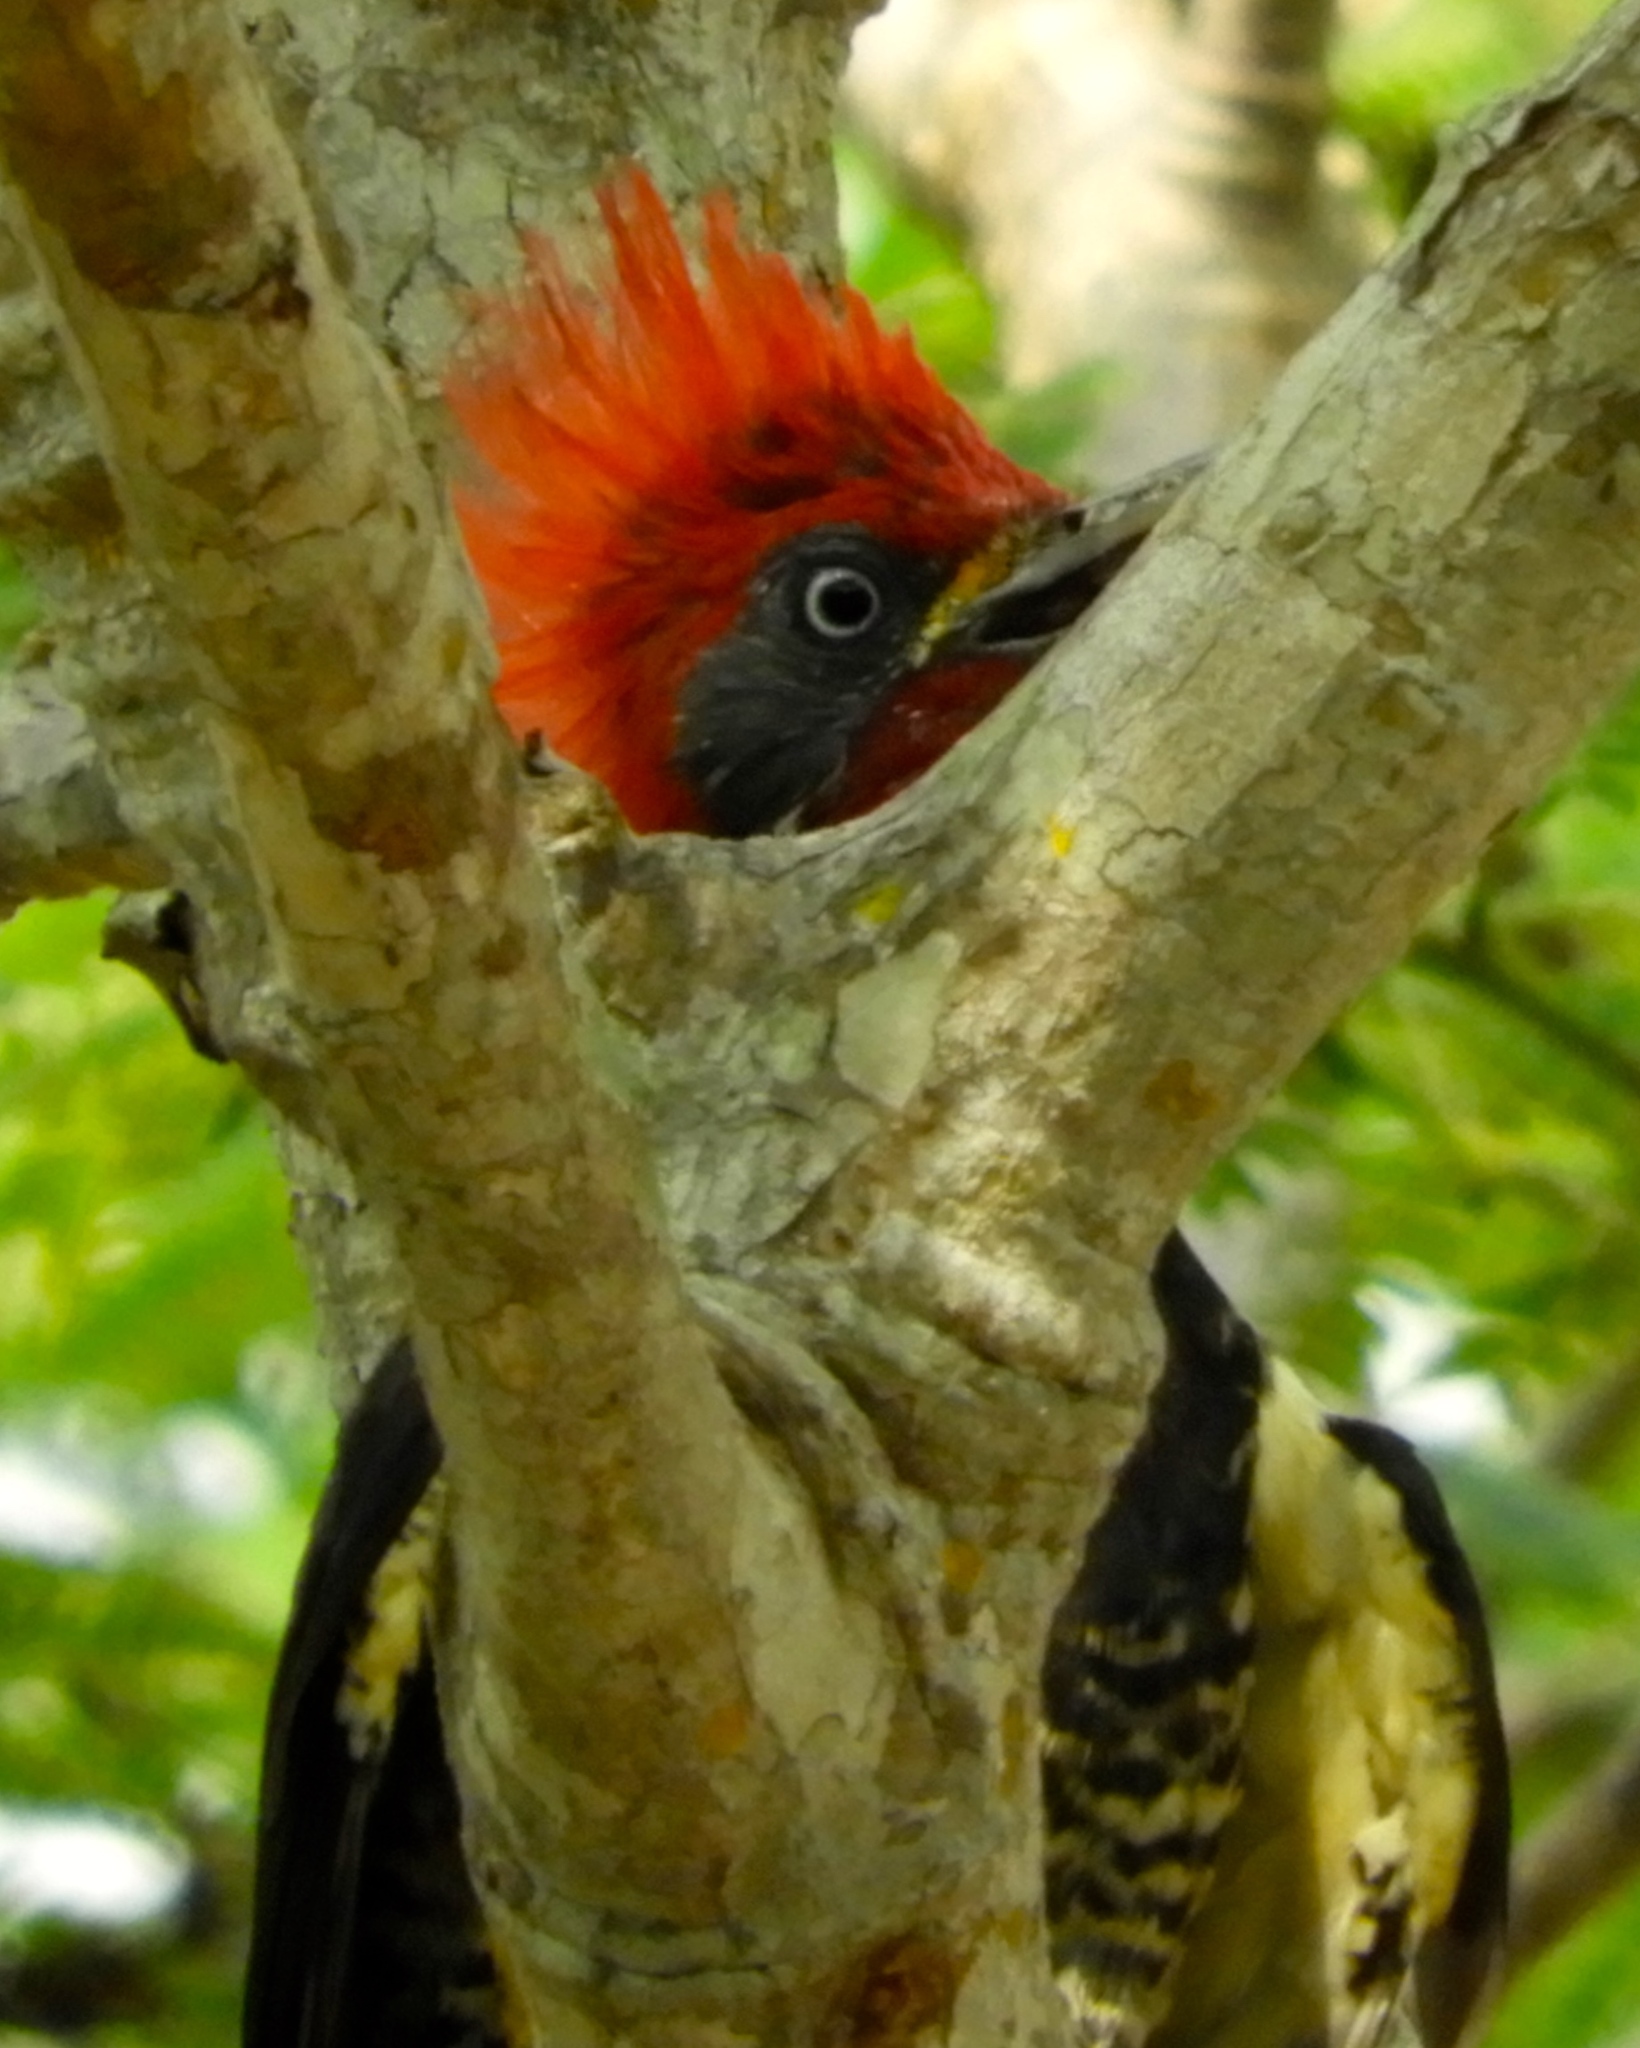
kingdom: Animalia
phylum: Chordata
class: Aves
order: Piciformes
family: Picidae
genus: Dryocopus
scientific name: Dryocopus lineatus
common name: Lineated woodpecker
